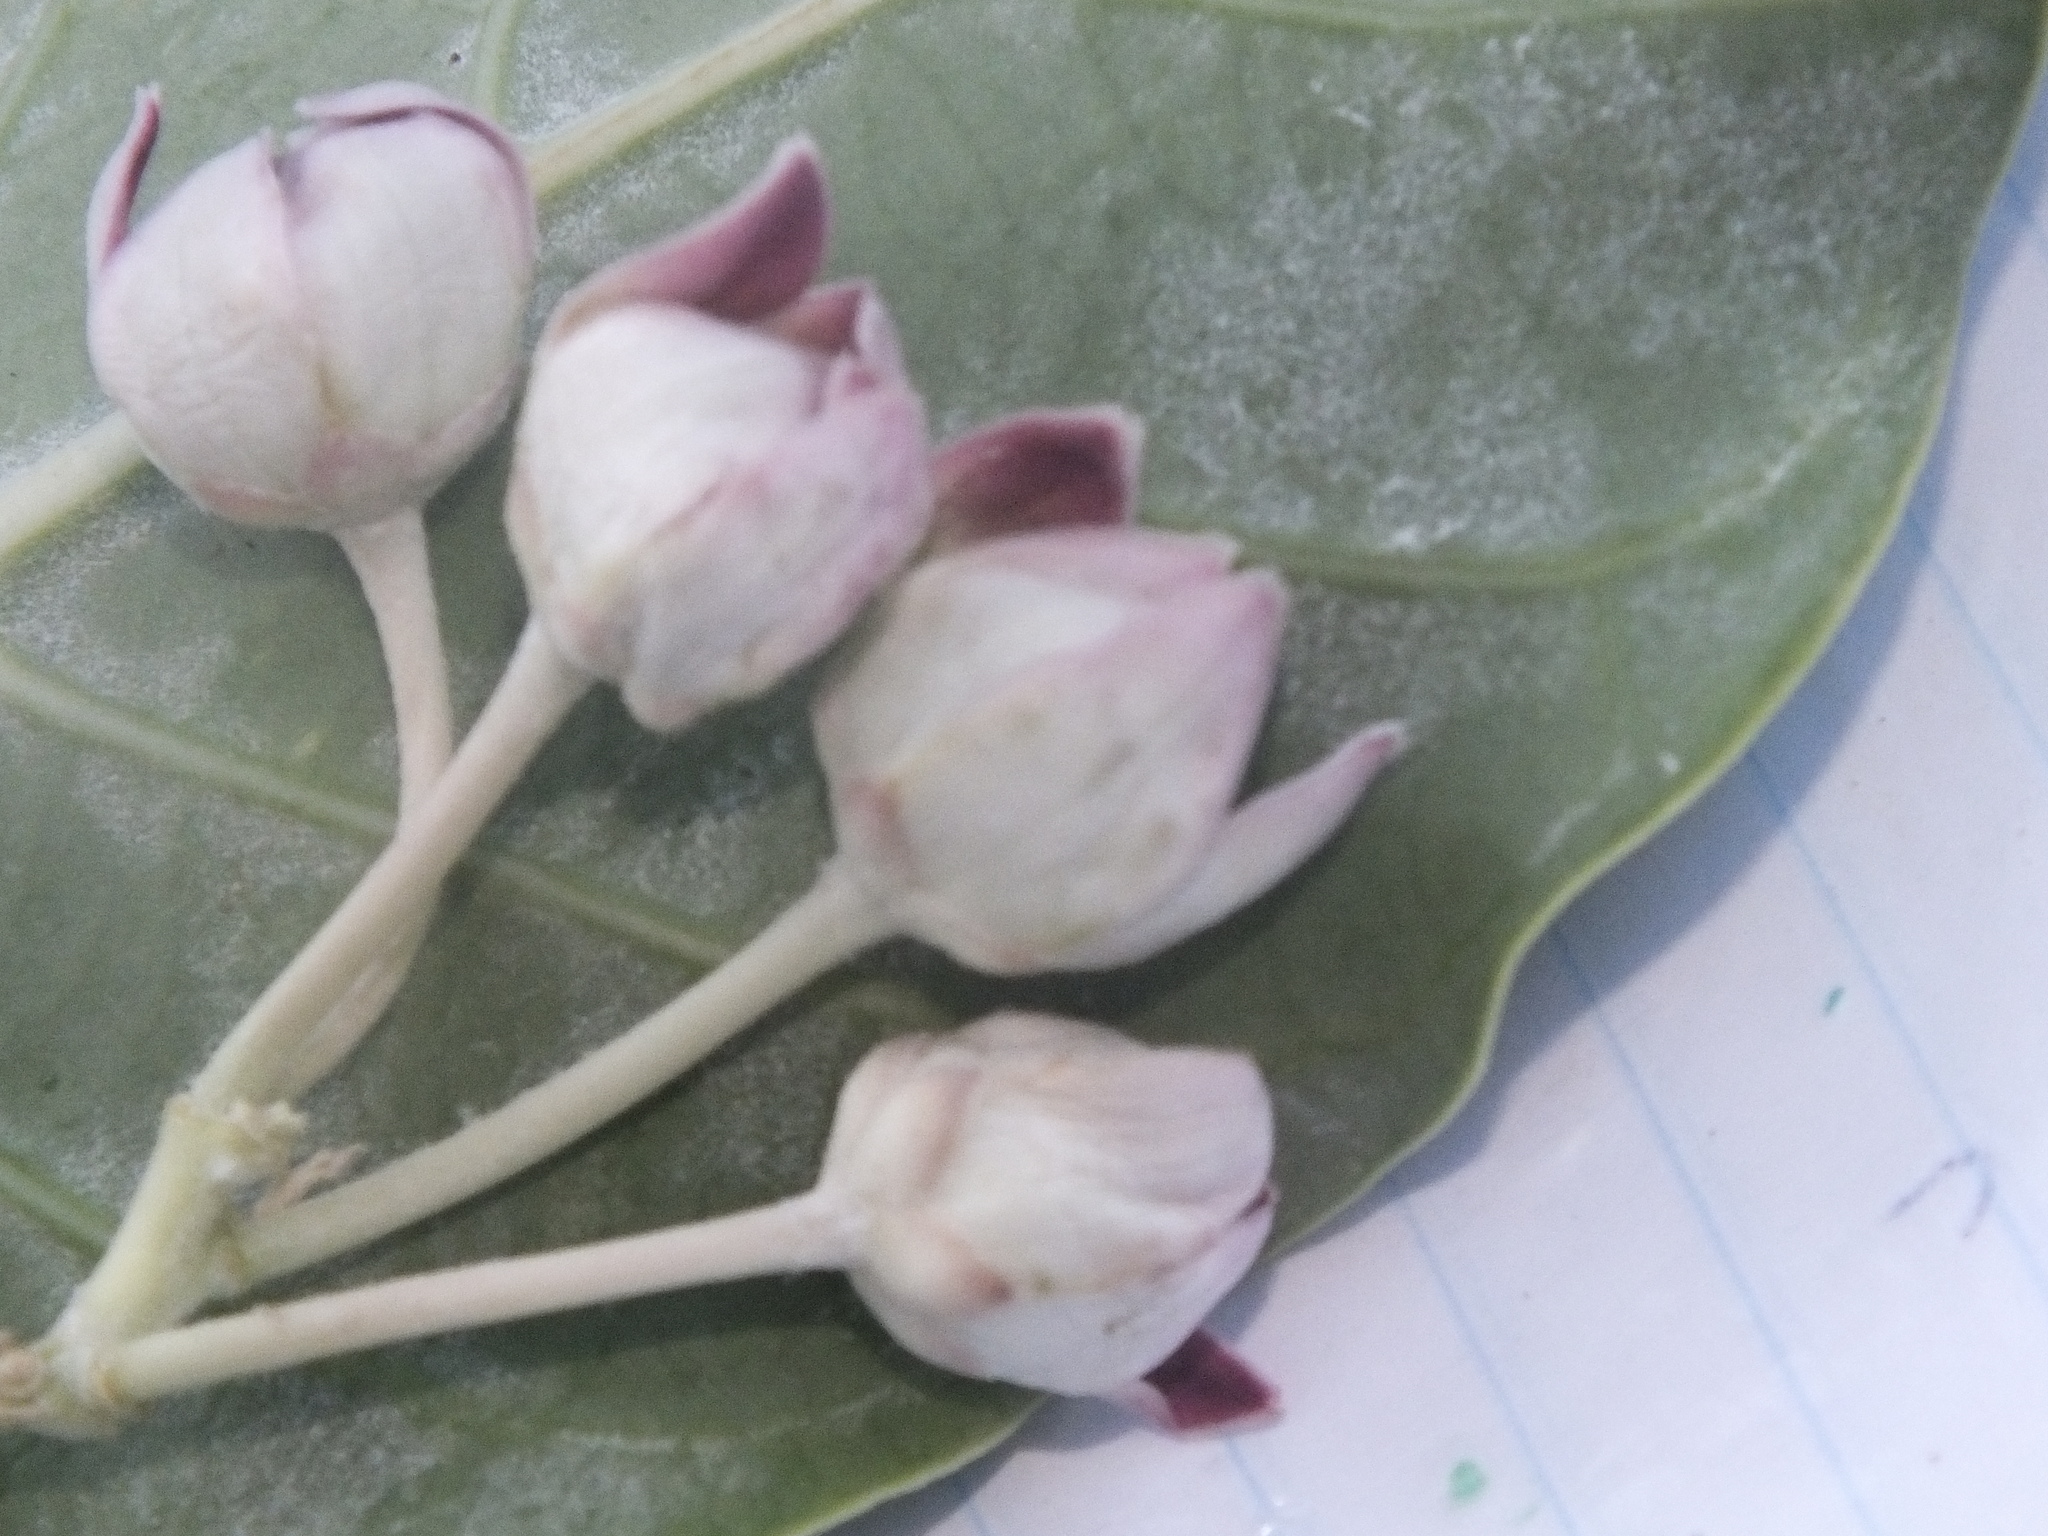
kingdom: Plantae
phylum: Tracheophyta
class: Magnoliopsida
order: Gentianales
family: Apocynaceae
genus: Calotropis
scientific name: Calotropis procera
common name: Roostertree
